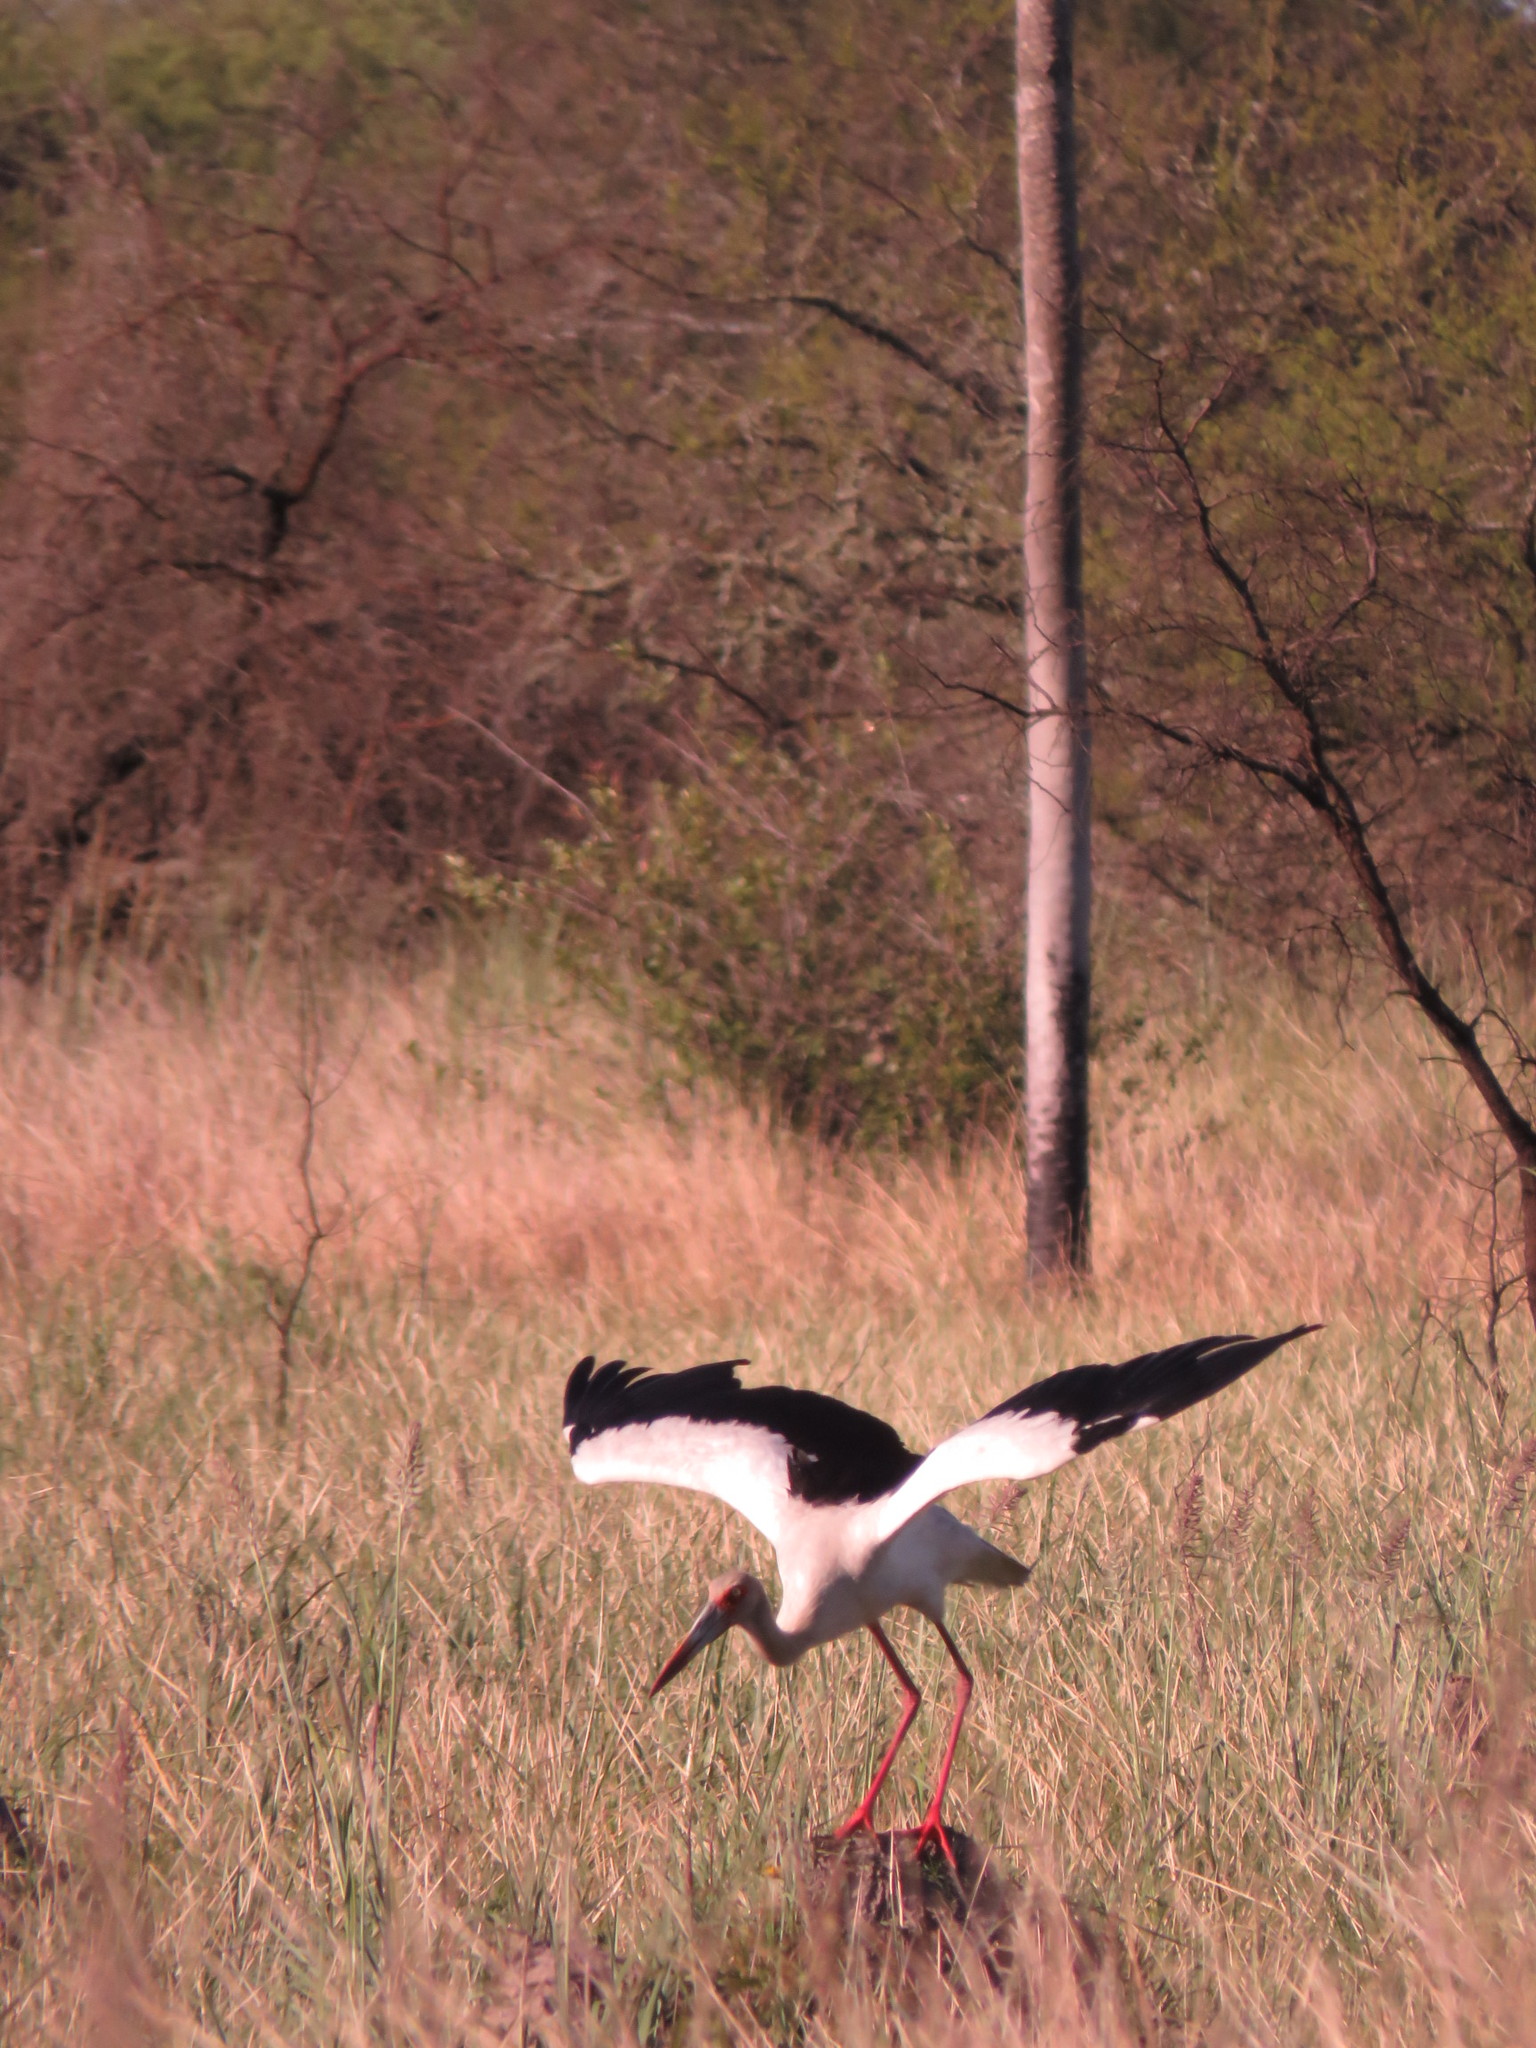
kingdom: Animalia
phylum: Chordata
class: Aves
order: Ciconiiformes
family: Ciconiidae
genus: Ciconia
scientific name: Ciconia maguari
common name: Maguari stork
